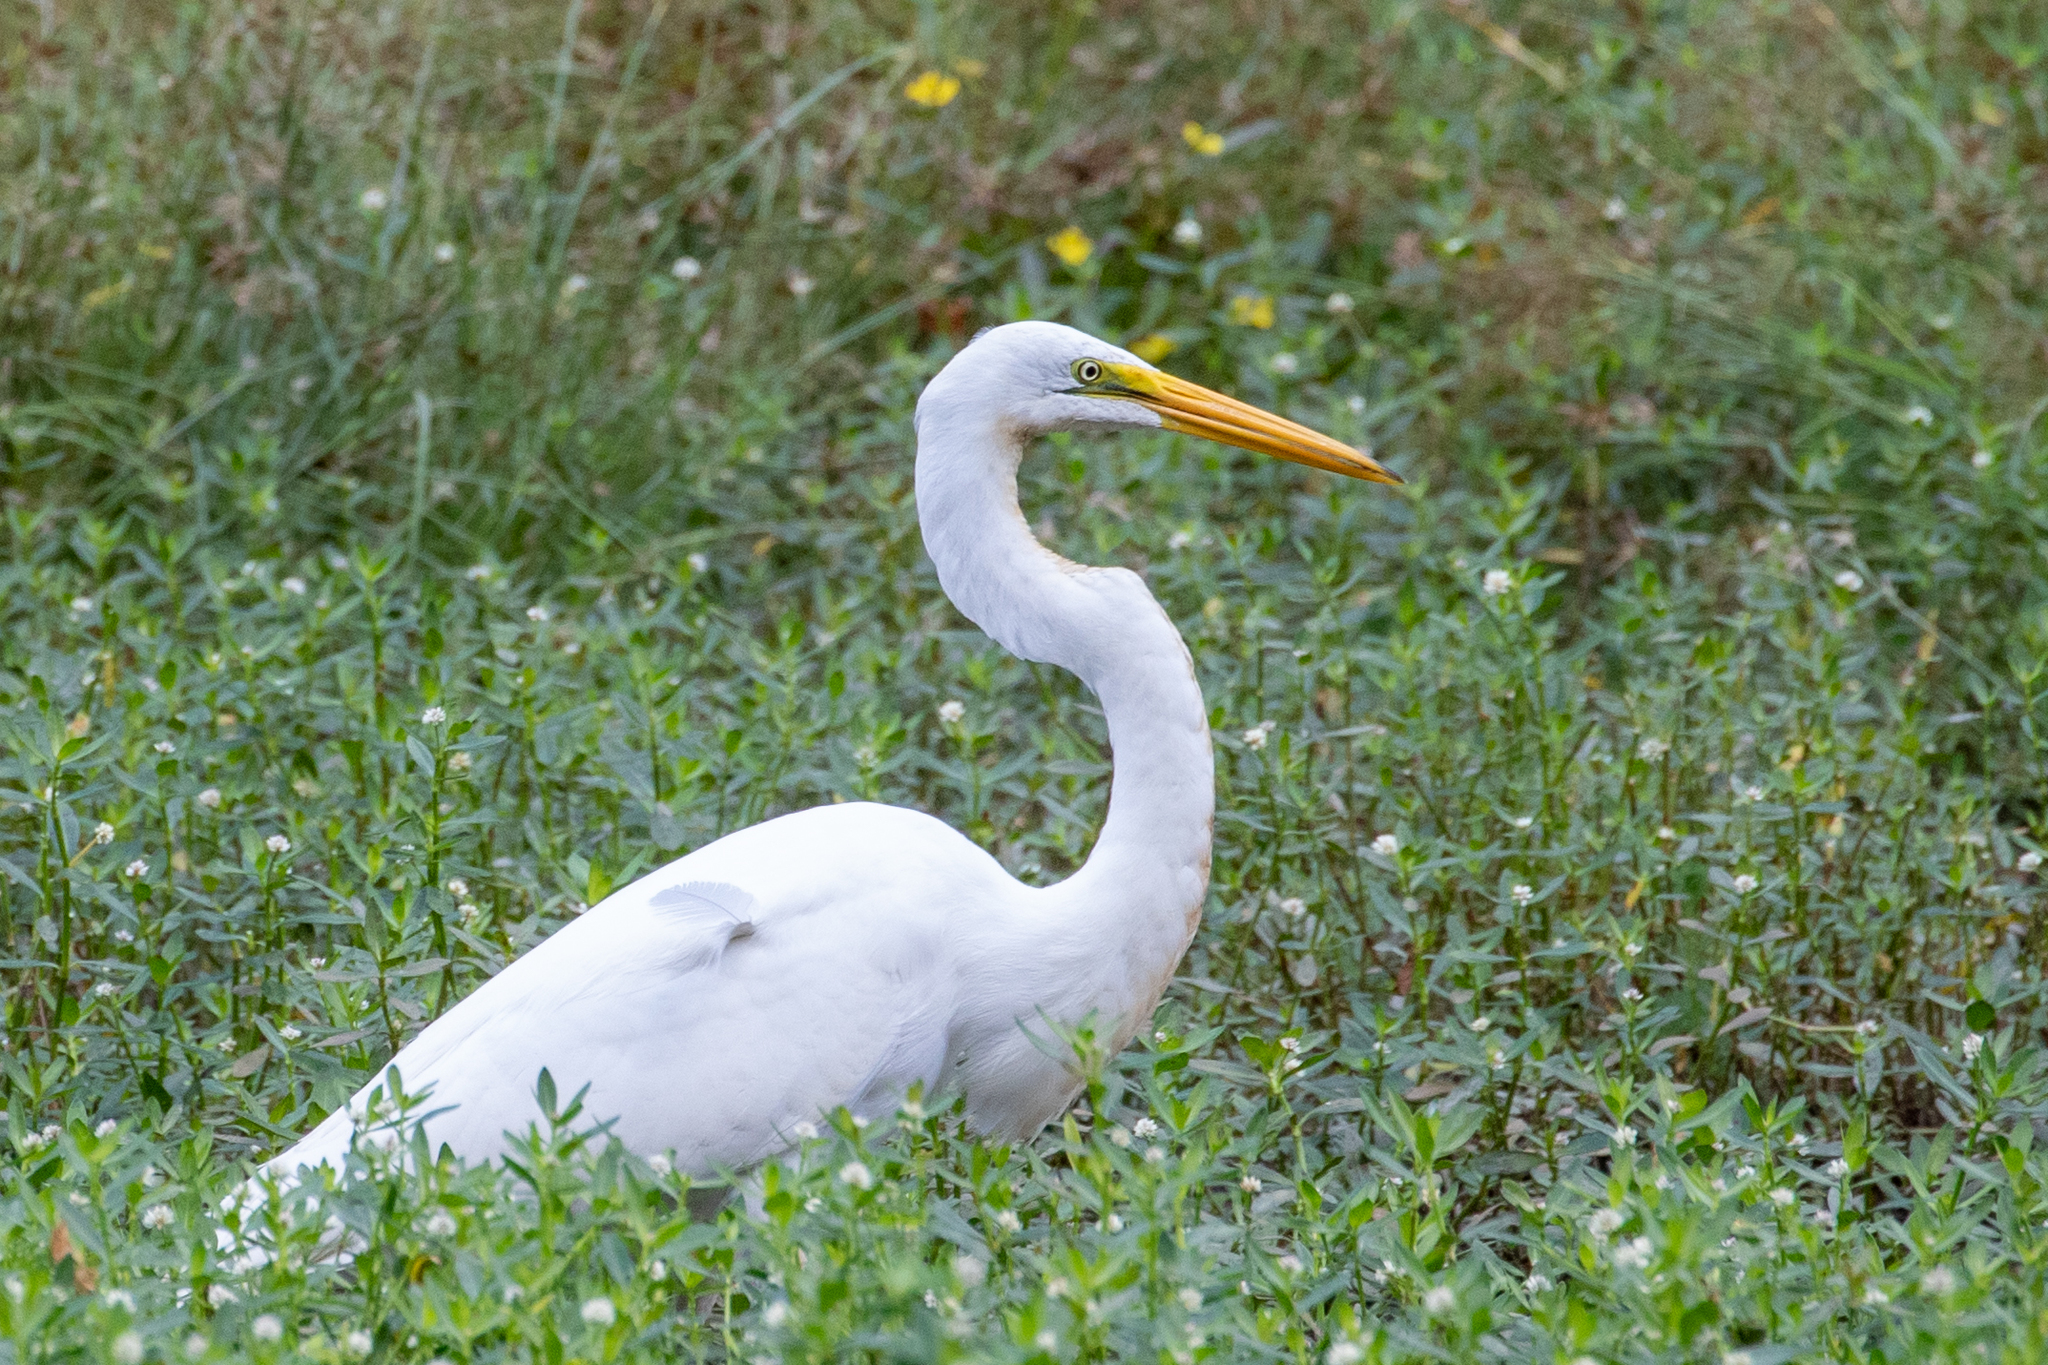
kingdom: Animalia
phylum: Chordata
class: Aves
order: Pelecaniformes
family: Ardeidae
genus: Ardea
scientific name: Ardea alba
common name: Great egret
